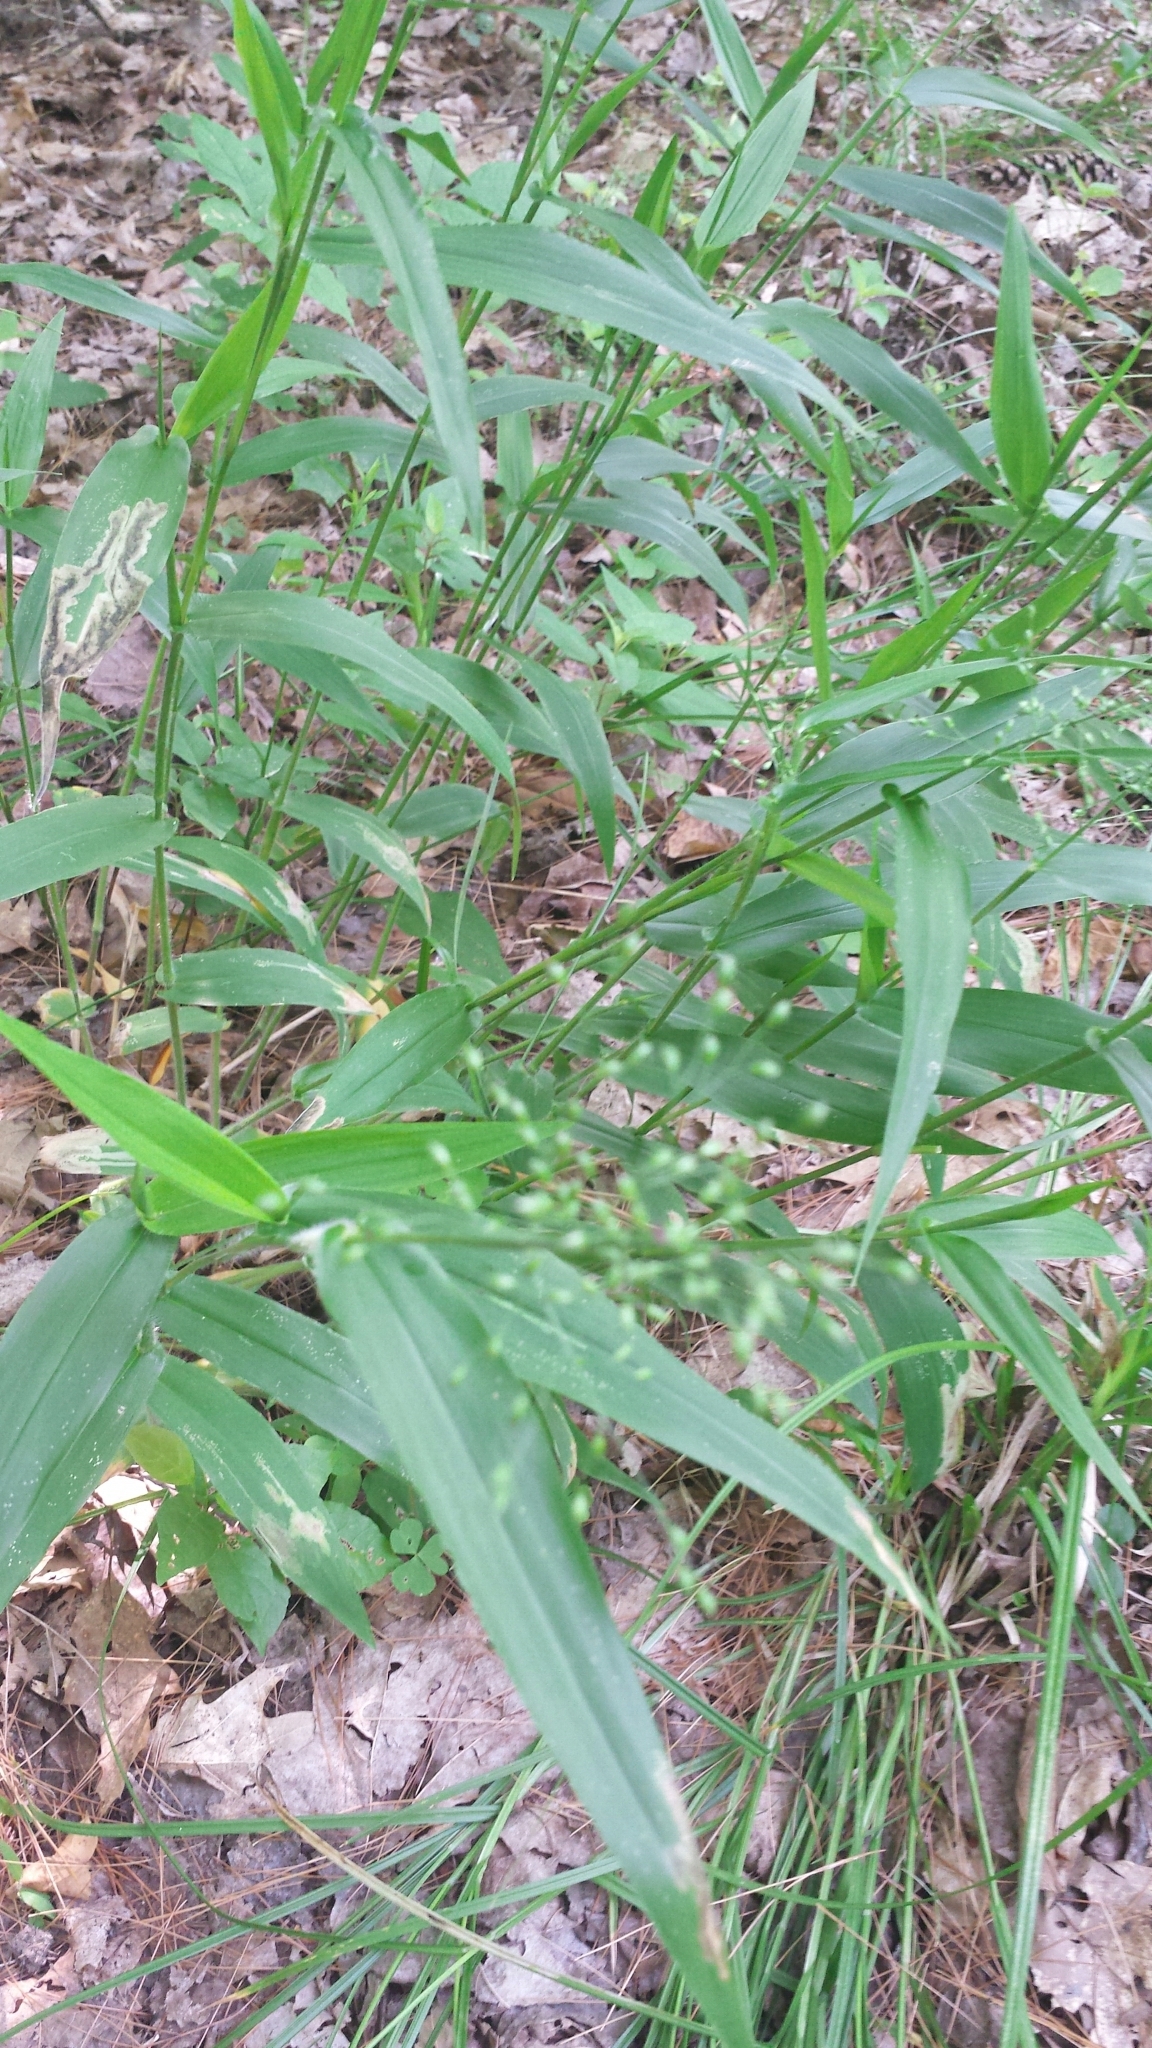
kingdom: Plantae
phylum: Tracheophyta
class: Liliopsida
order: Poales
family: Poaceae
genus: Dichanthelium
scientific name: Dichanthelium clandestinum
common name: Deer-tongue grass
